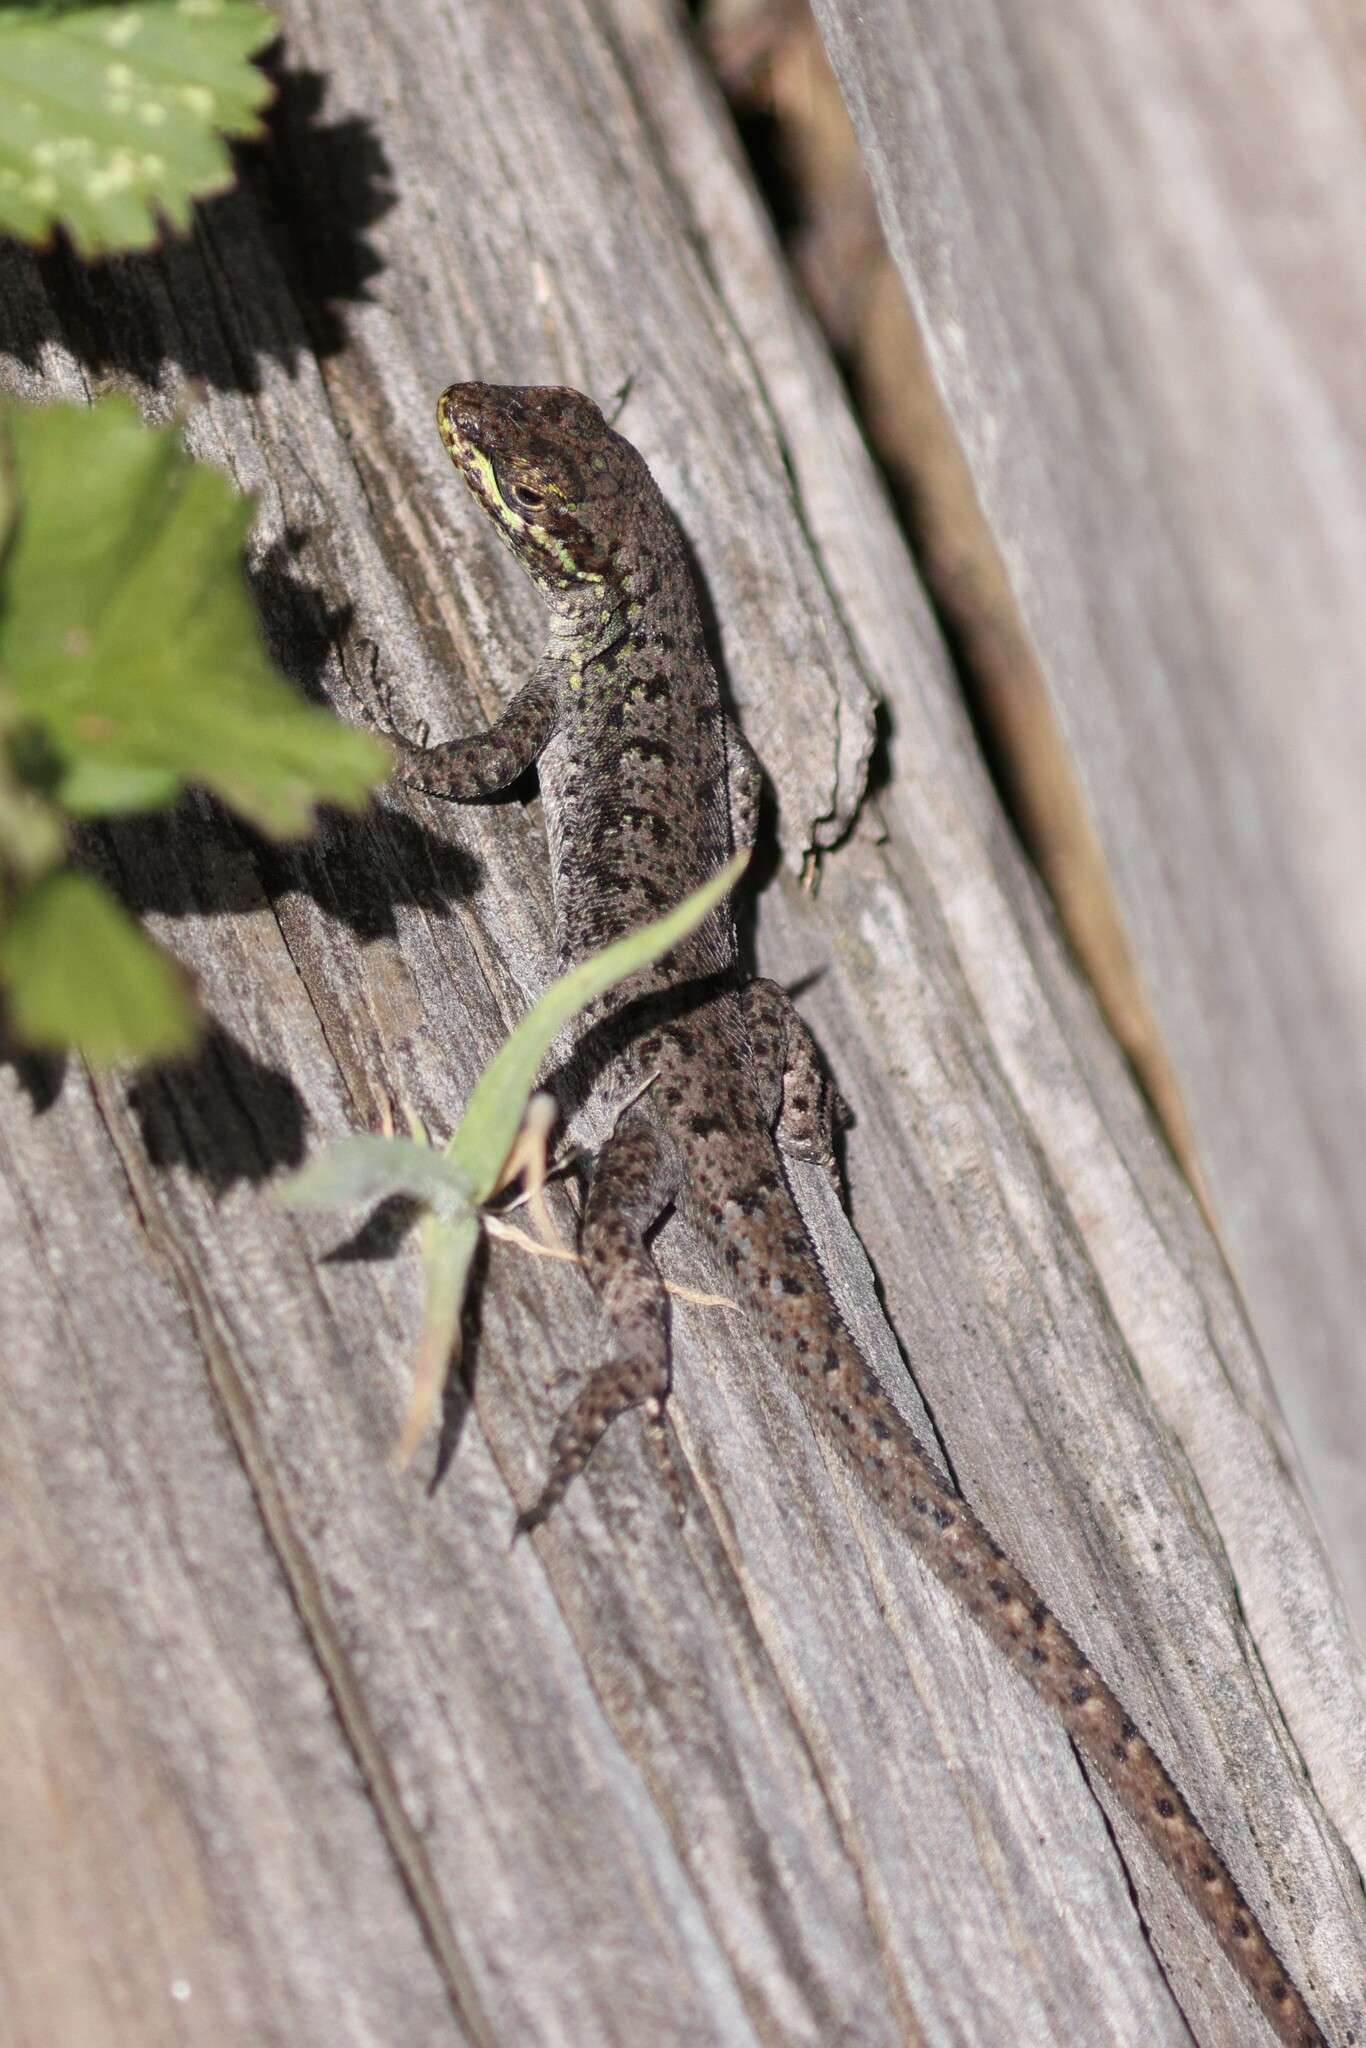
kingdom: Animalia
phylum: Chordata
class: Squamata
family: Liolaemidae
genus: Liolaemus
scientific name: Liolaemus tenuis
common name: Thin tree iguana
